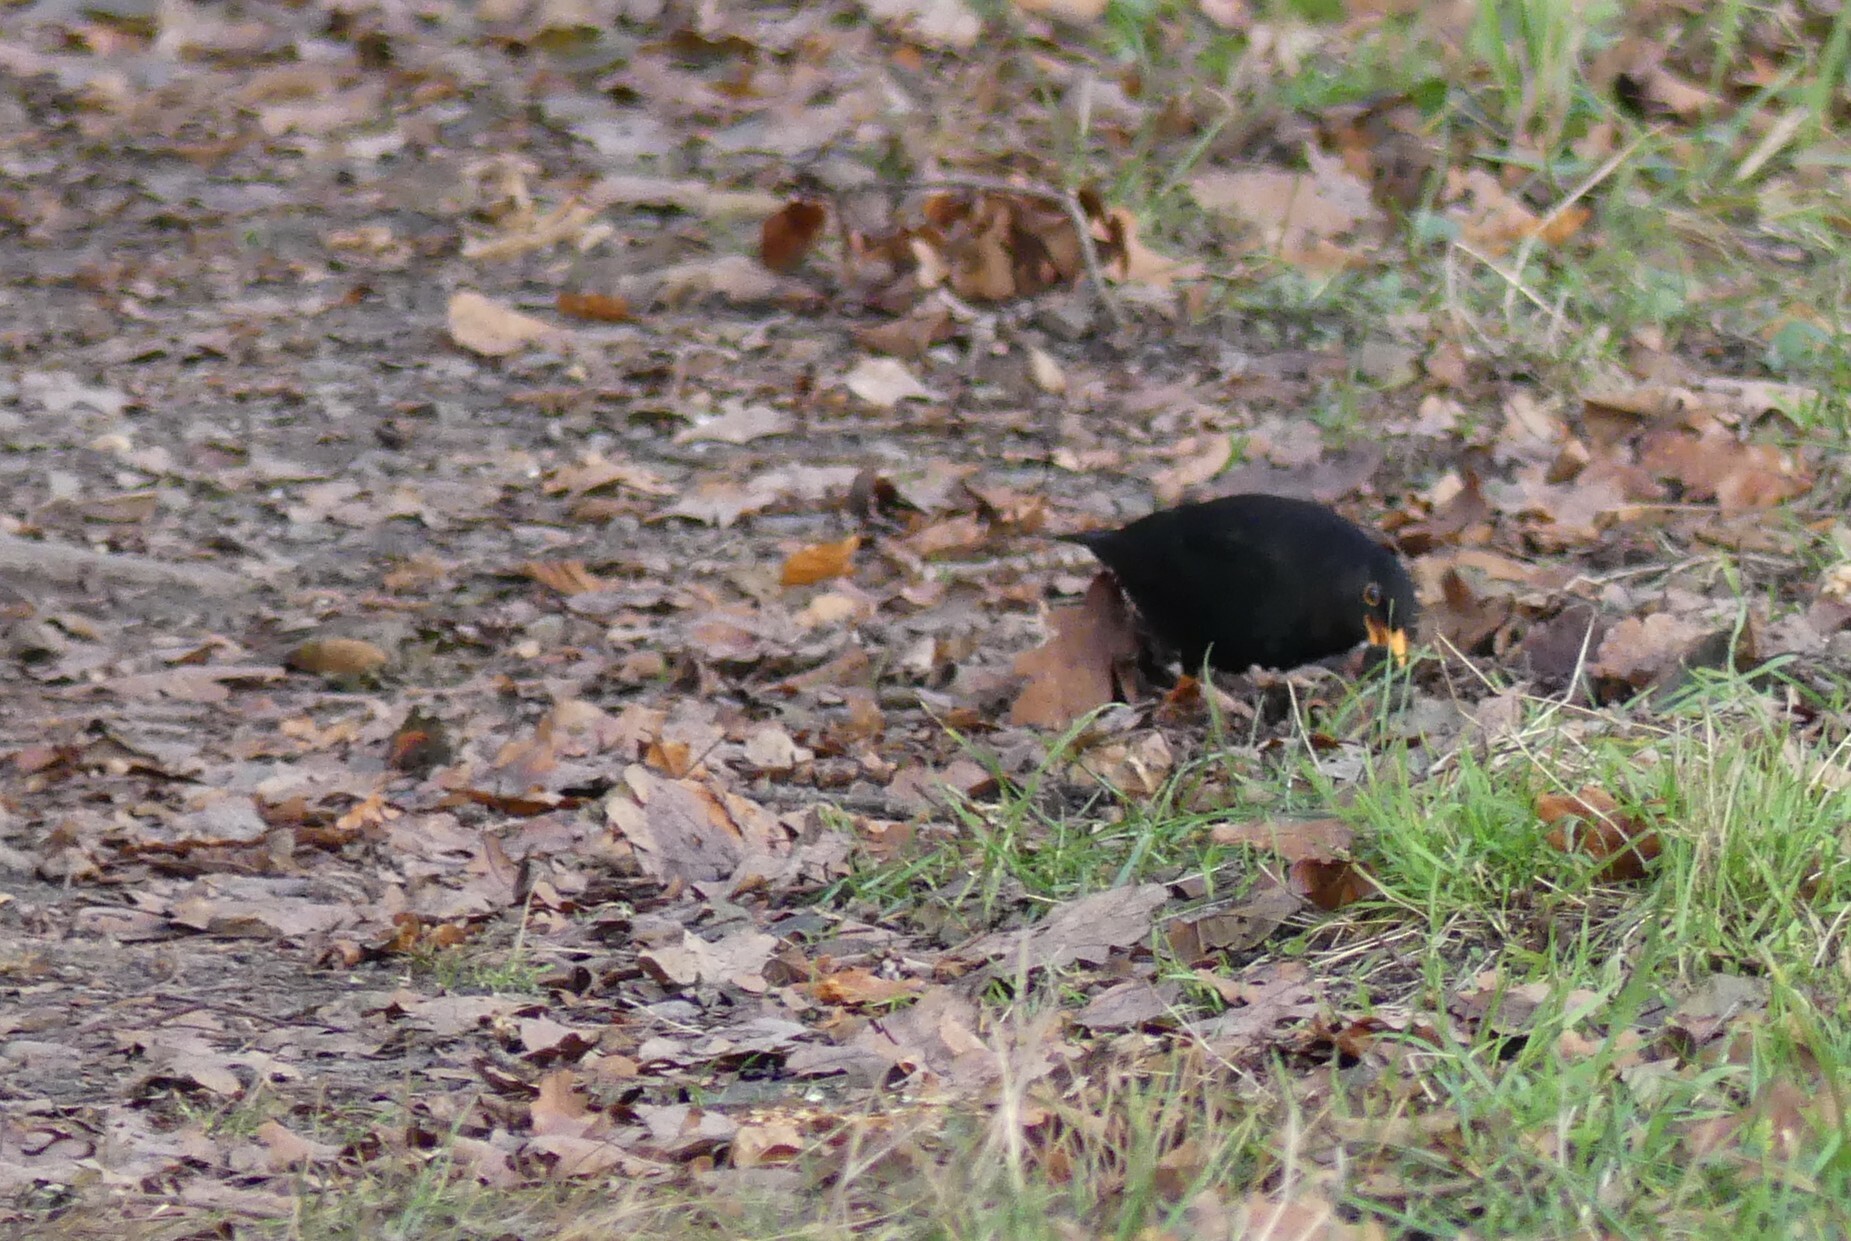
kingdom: Animalia
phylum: Chordata
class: Aves
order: Passeriformes
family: Turdidae
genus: Turdus
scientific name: Turdus merula
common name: Common blackbird
